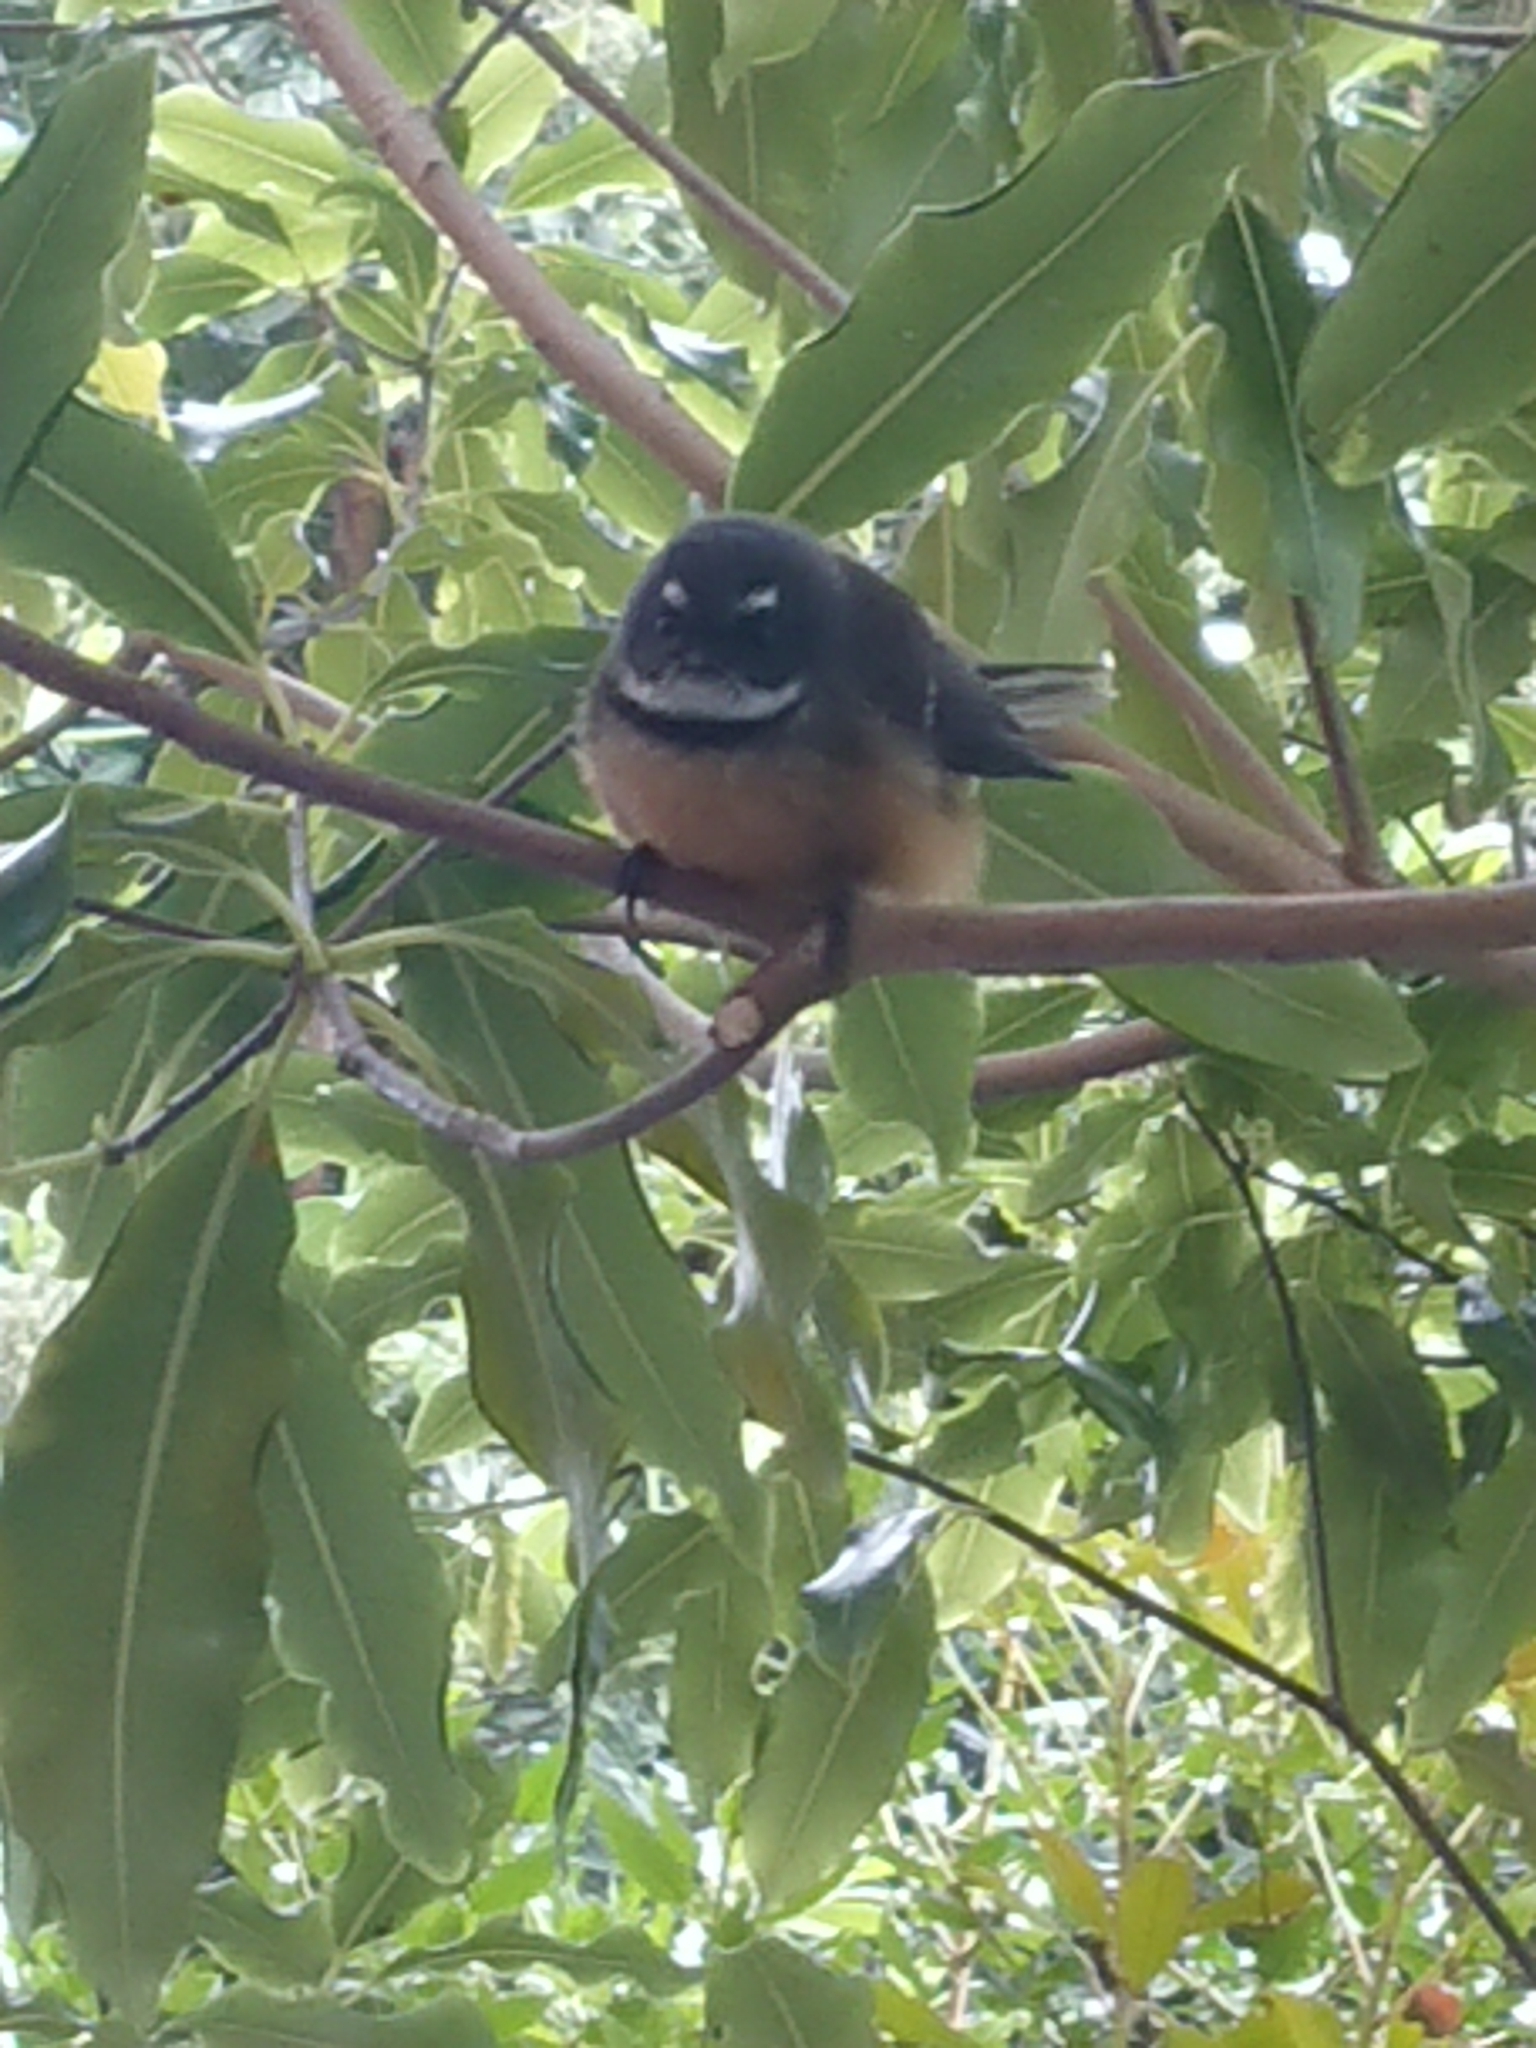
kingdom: Animalia
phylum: Chordata
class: Aves
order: Passeriformes
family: Rhipiduridae
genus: Rhipidura
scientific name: Rhipidura fuliginosa
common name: New zealand fantail
